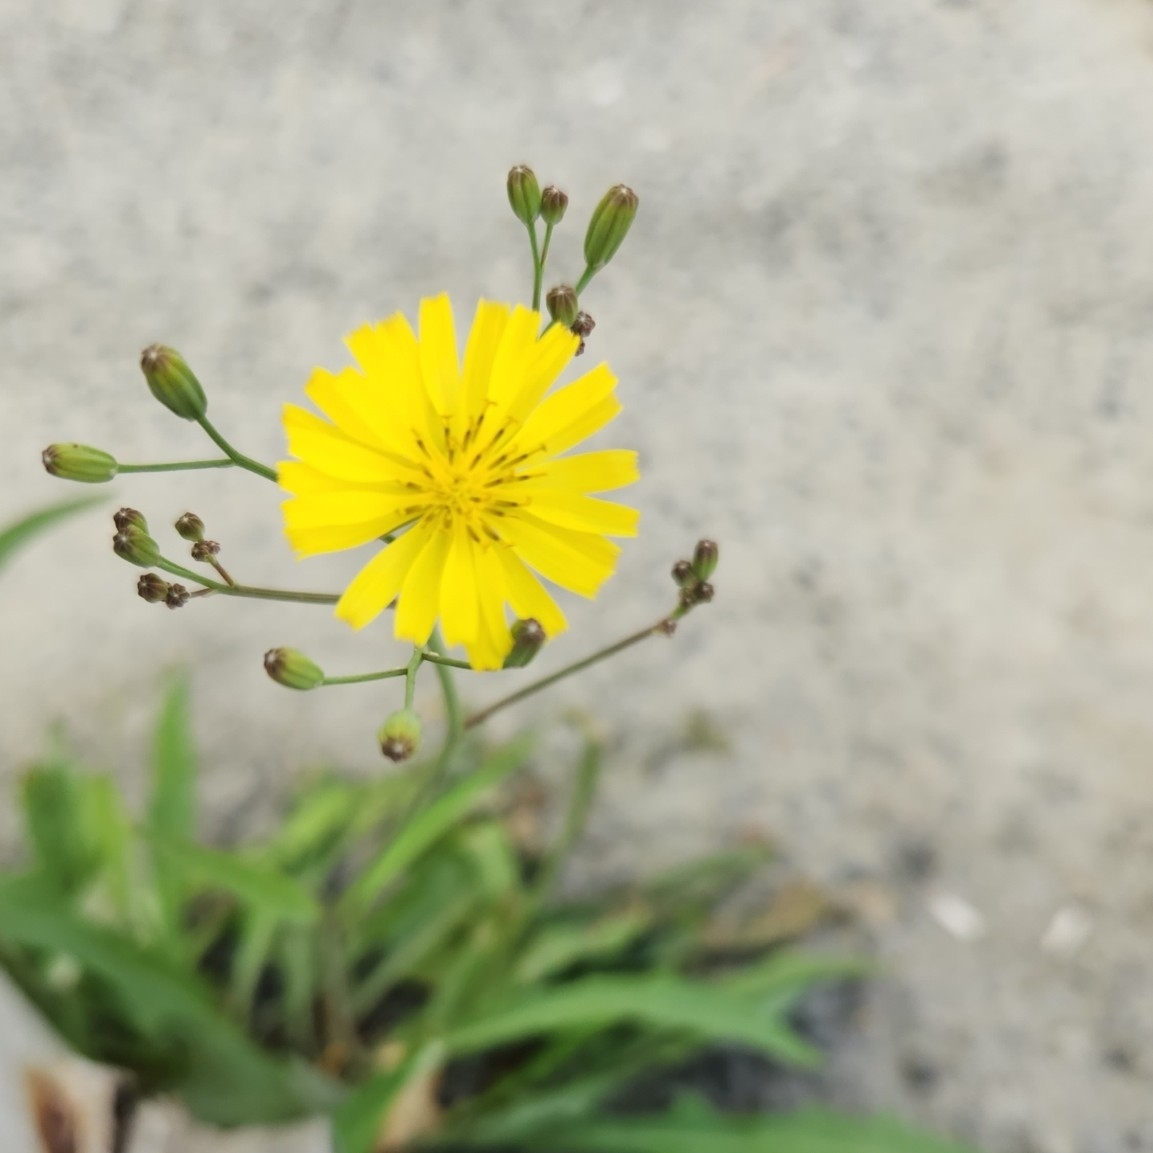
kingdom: Plantae
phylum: Tracheophyta
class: Magnoliopsida
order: Asterales
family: Asteraceae
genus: Ixeris
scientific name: Ixeris chinensis
